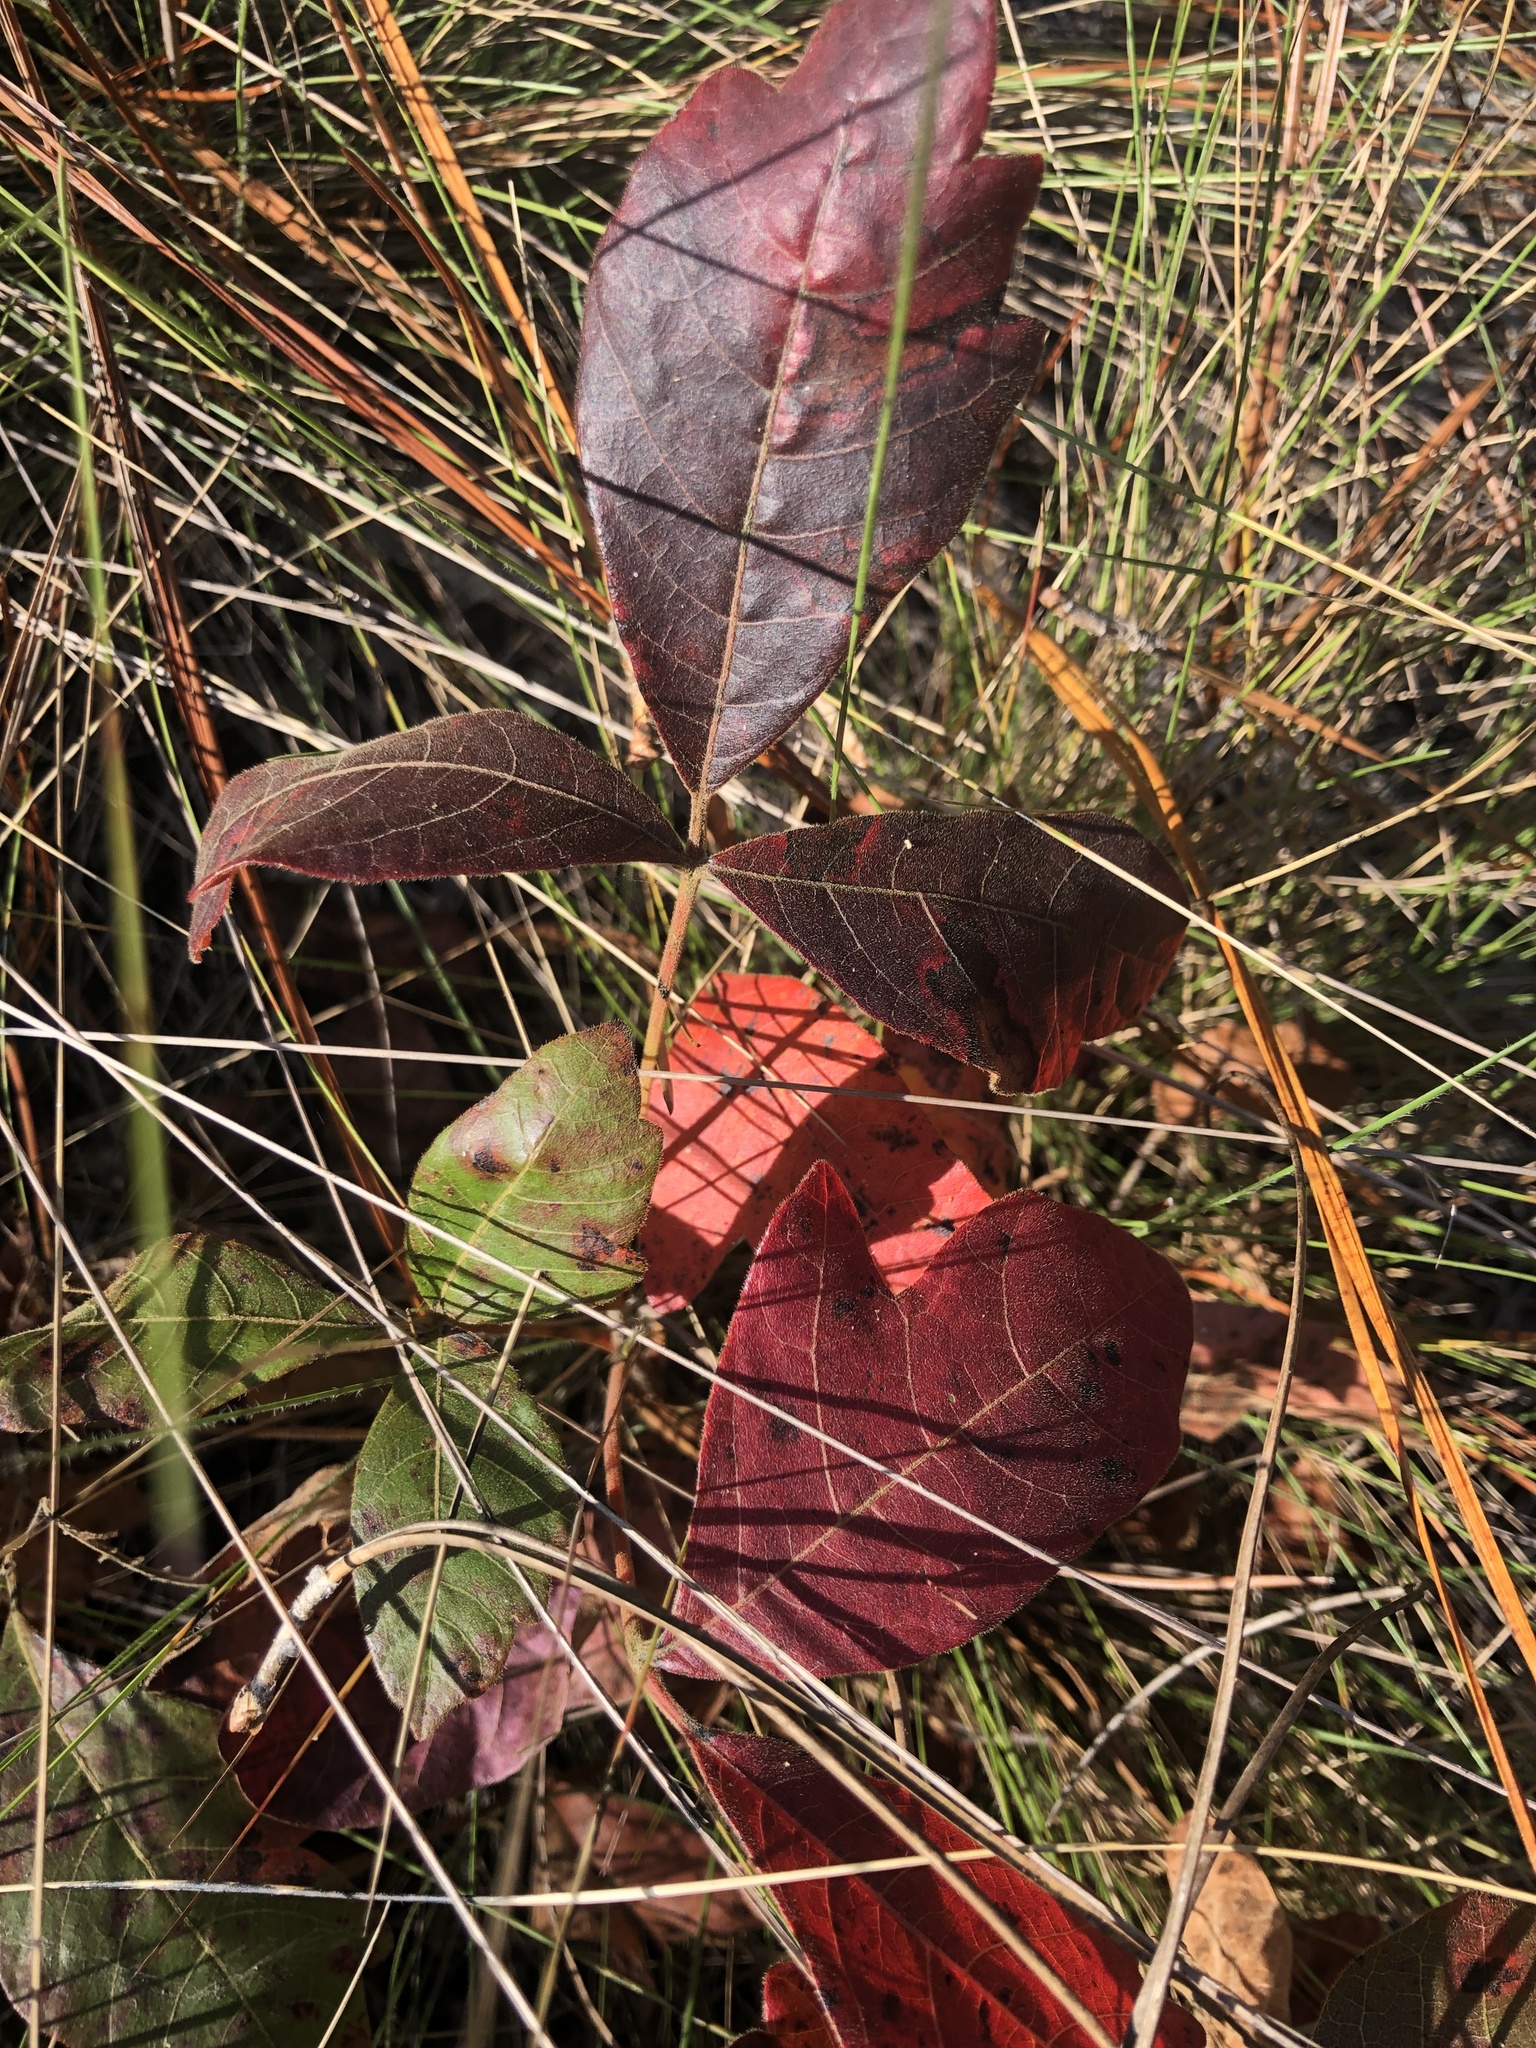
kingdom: Plantae
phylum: Tracheophyta
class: Magnoliopsida
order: Sapindales
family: Anacardiaceae
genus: Toxicodendron
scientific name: Toxicodendron pubescens
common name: Eastern poison-oak
